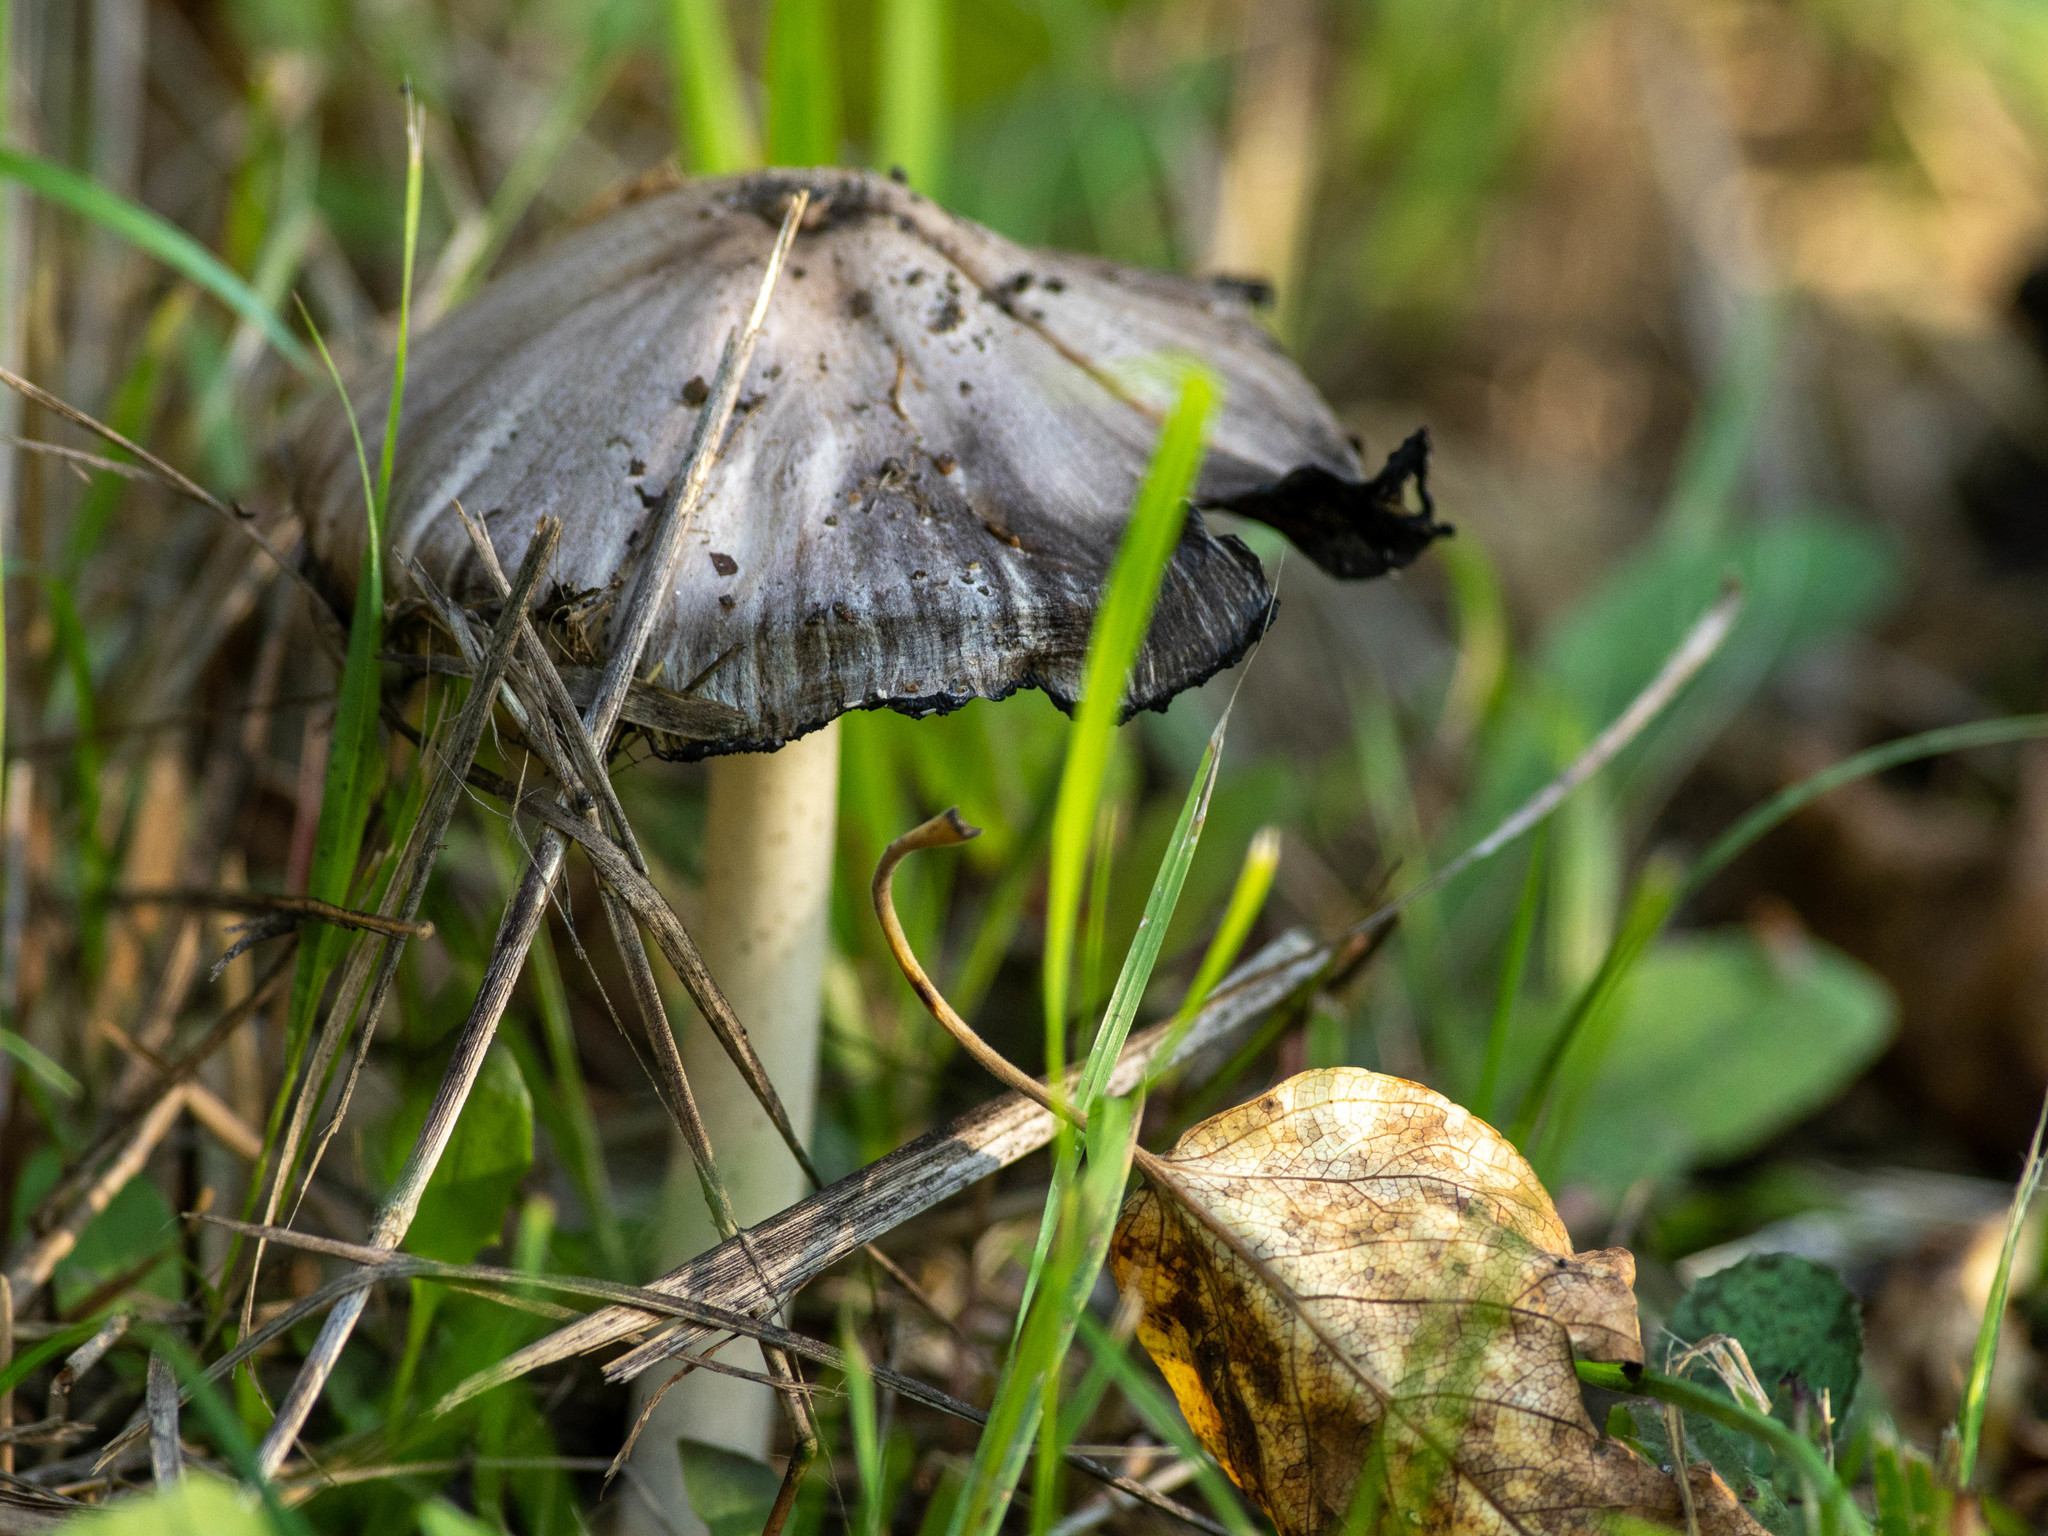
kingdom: Fungi
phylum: Basidiomycota
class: Agaricomycetes
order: Agaricales
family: Psathyrellaceae
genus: Coprinopsis
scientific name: Coprinopsis atramentaria
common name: Common ink-cap
